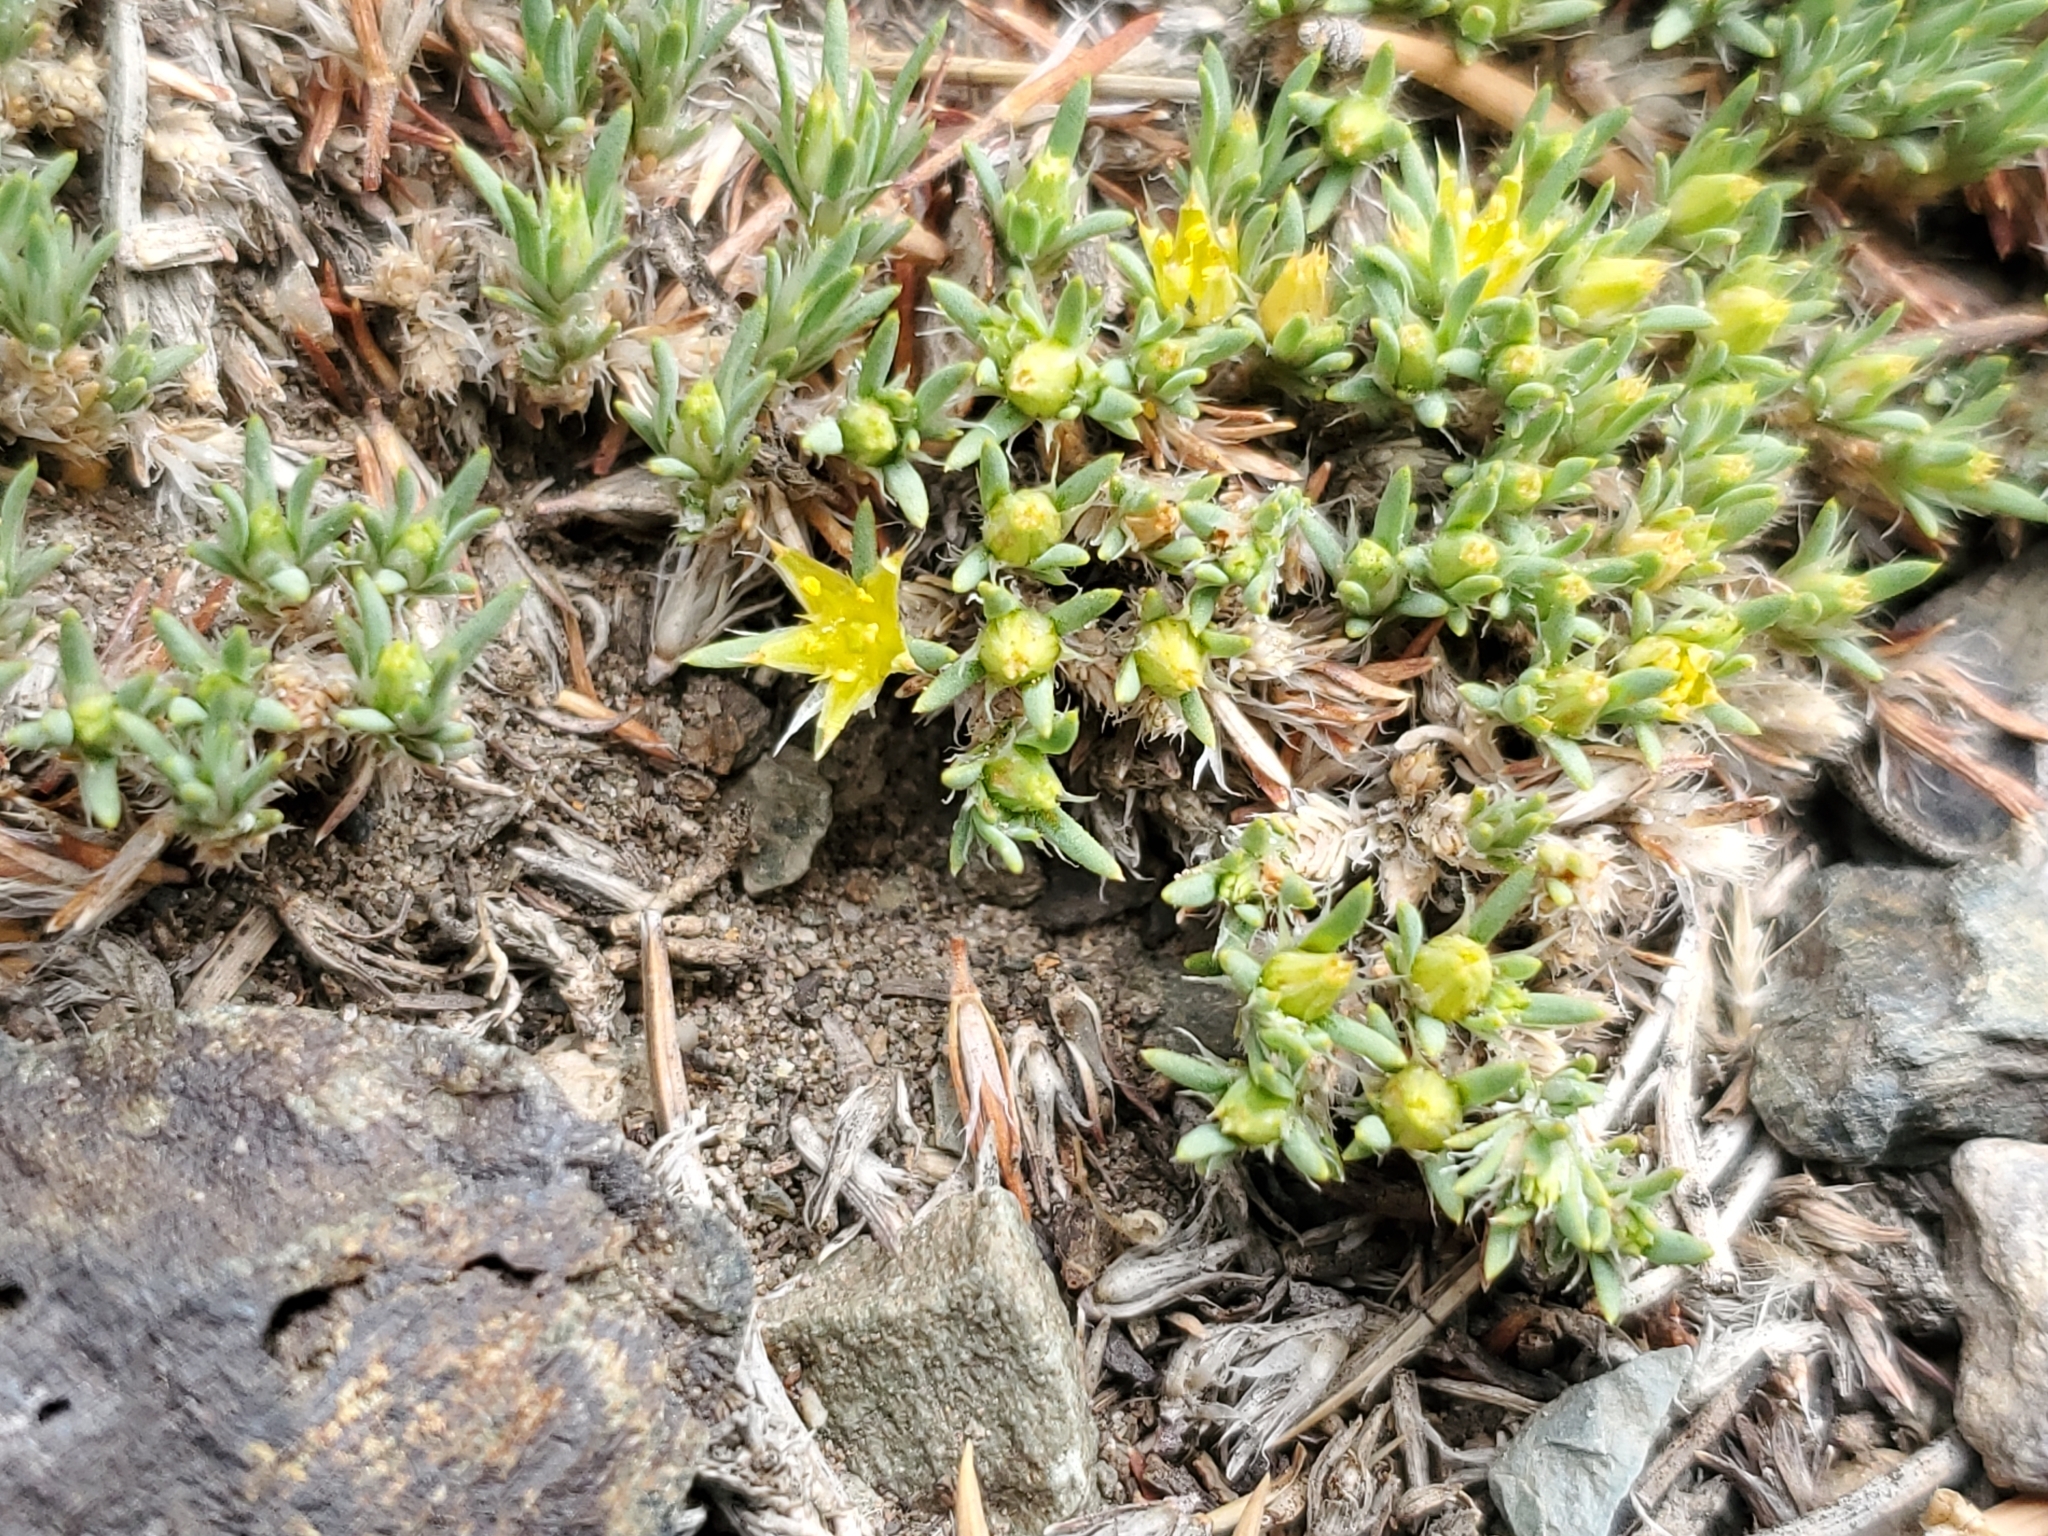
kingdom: Plantae
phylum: Tracheophyta
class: Magnoliopsida
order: Caryophyllales
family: Caryophyllaceae
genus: Paronychia
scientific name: Paronychia sessiliflora
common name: Creeping nailwort
